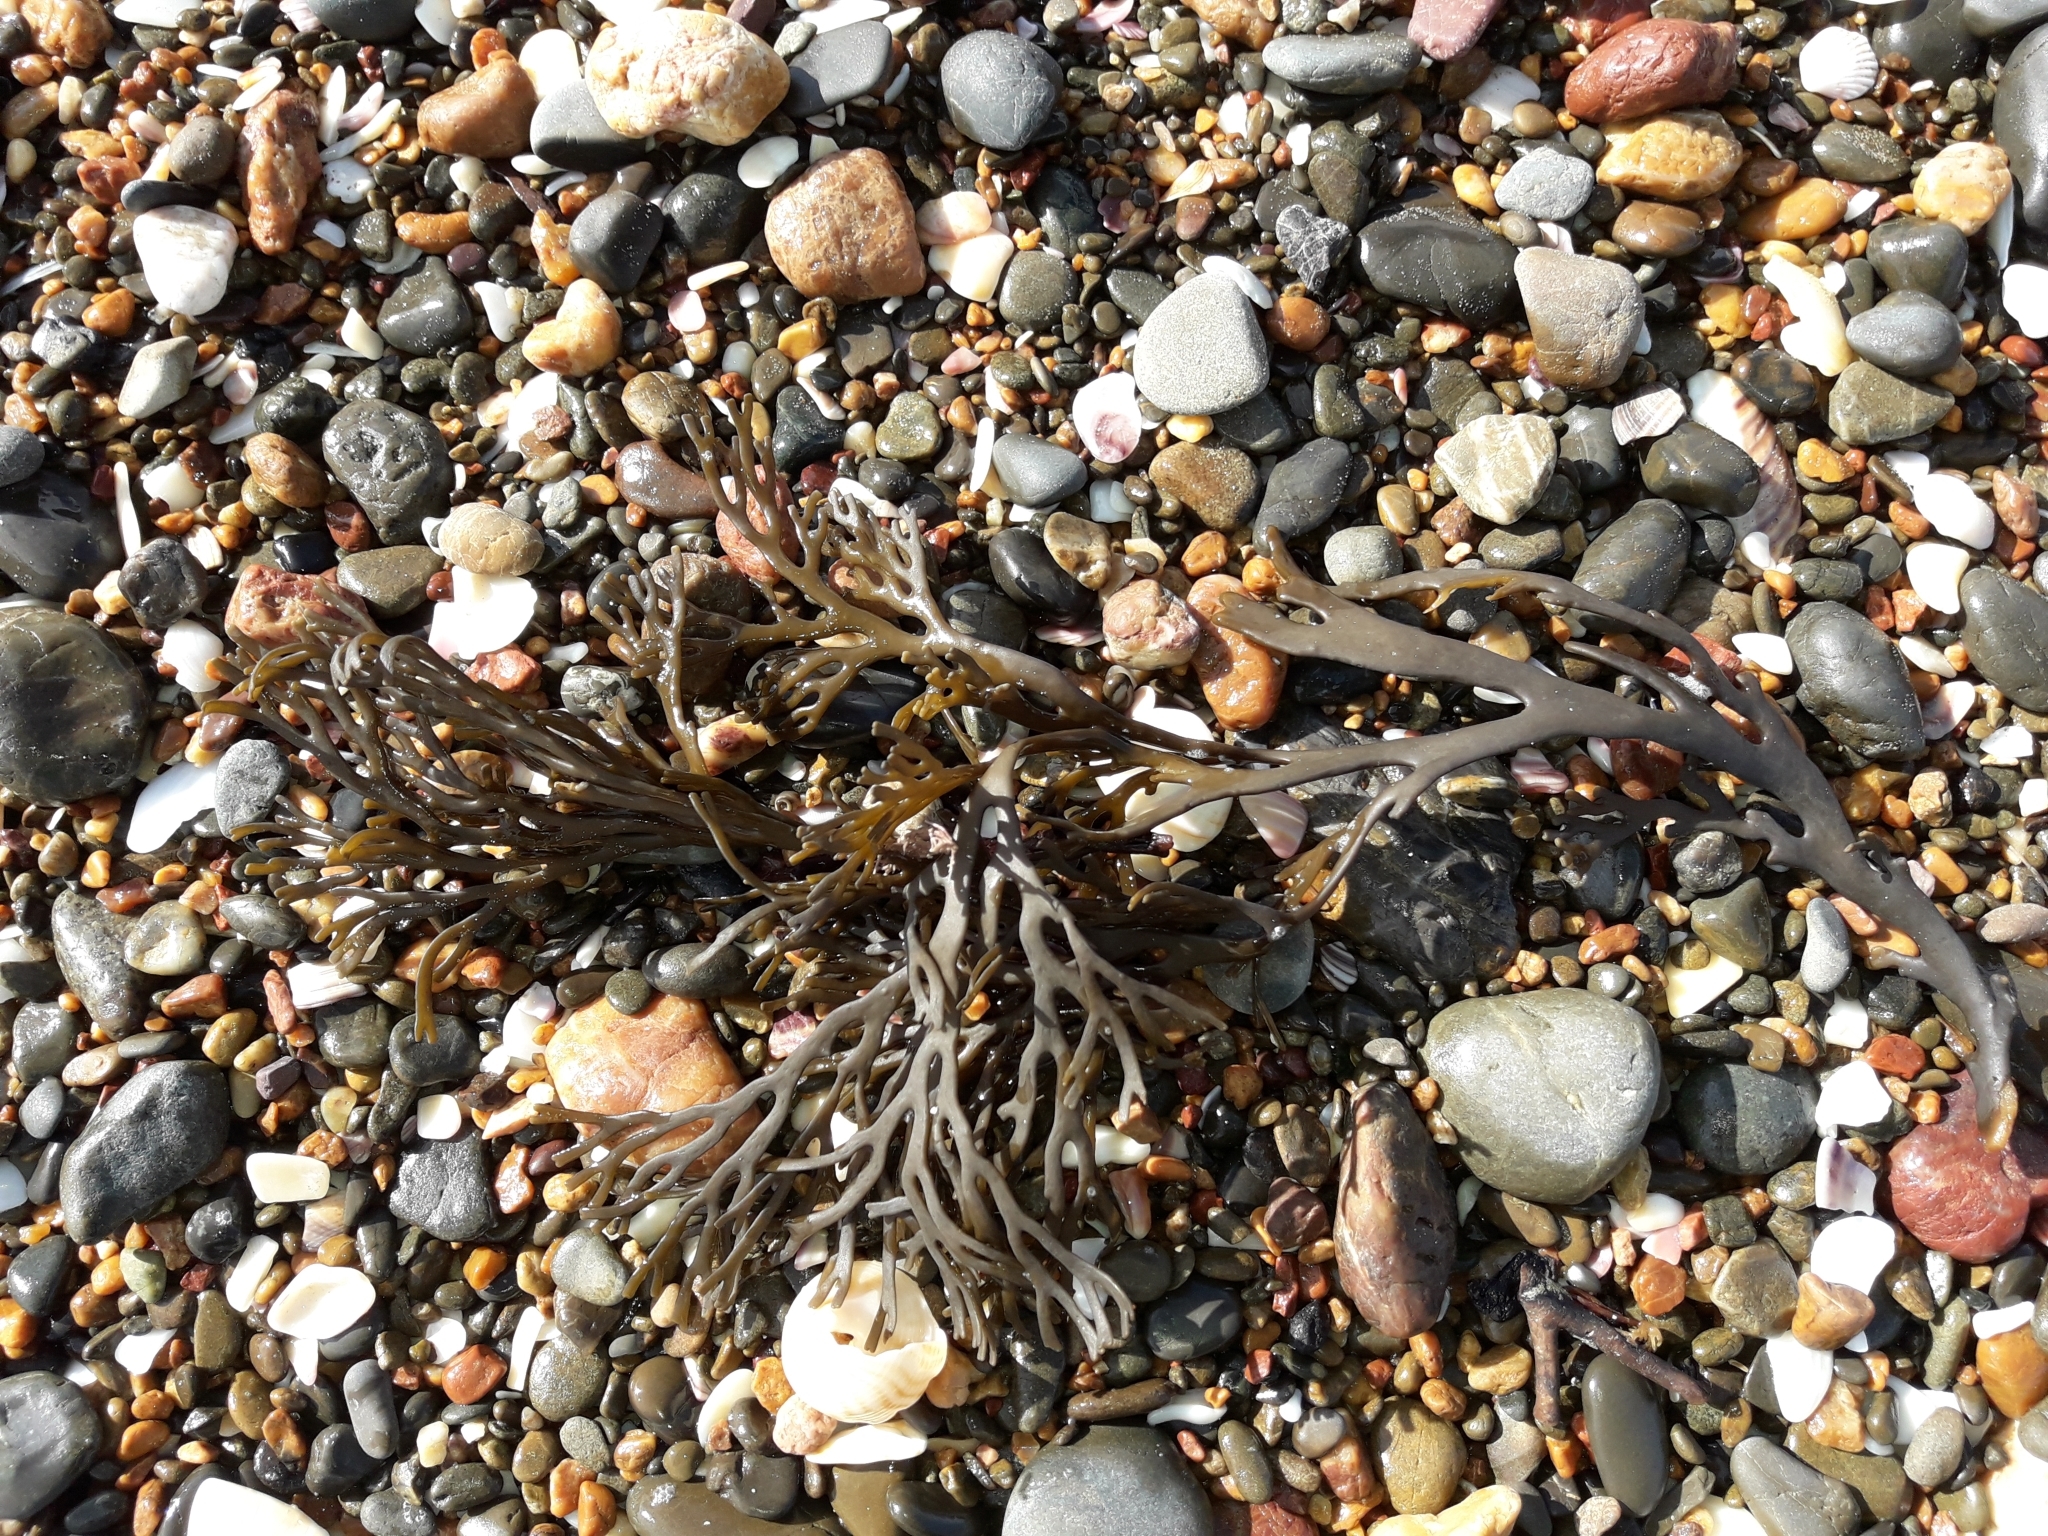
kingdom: Chromista
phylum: Ochrophyta
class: Phaeophyceae
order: Fucales
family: Xiphophoraceae
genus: Xiphophora
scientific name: Xiphophora chondrophylla
